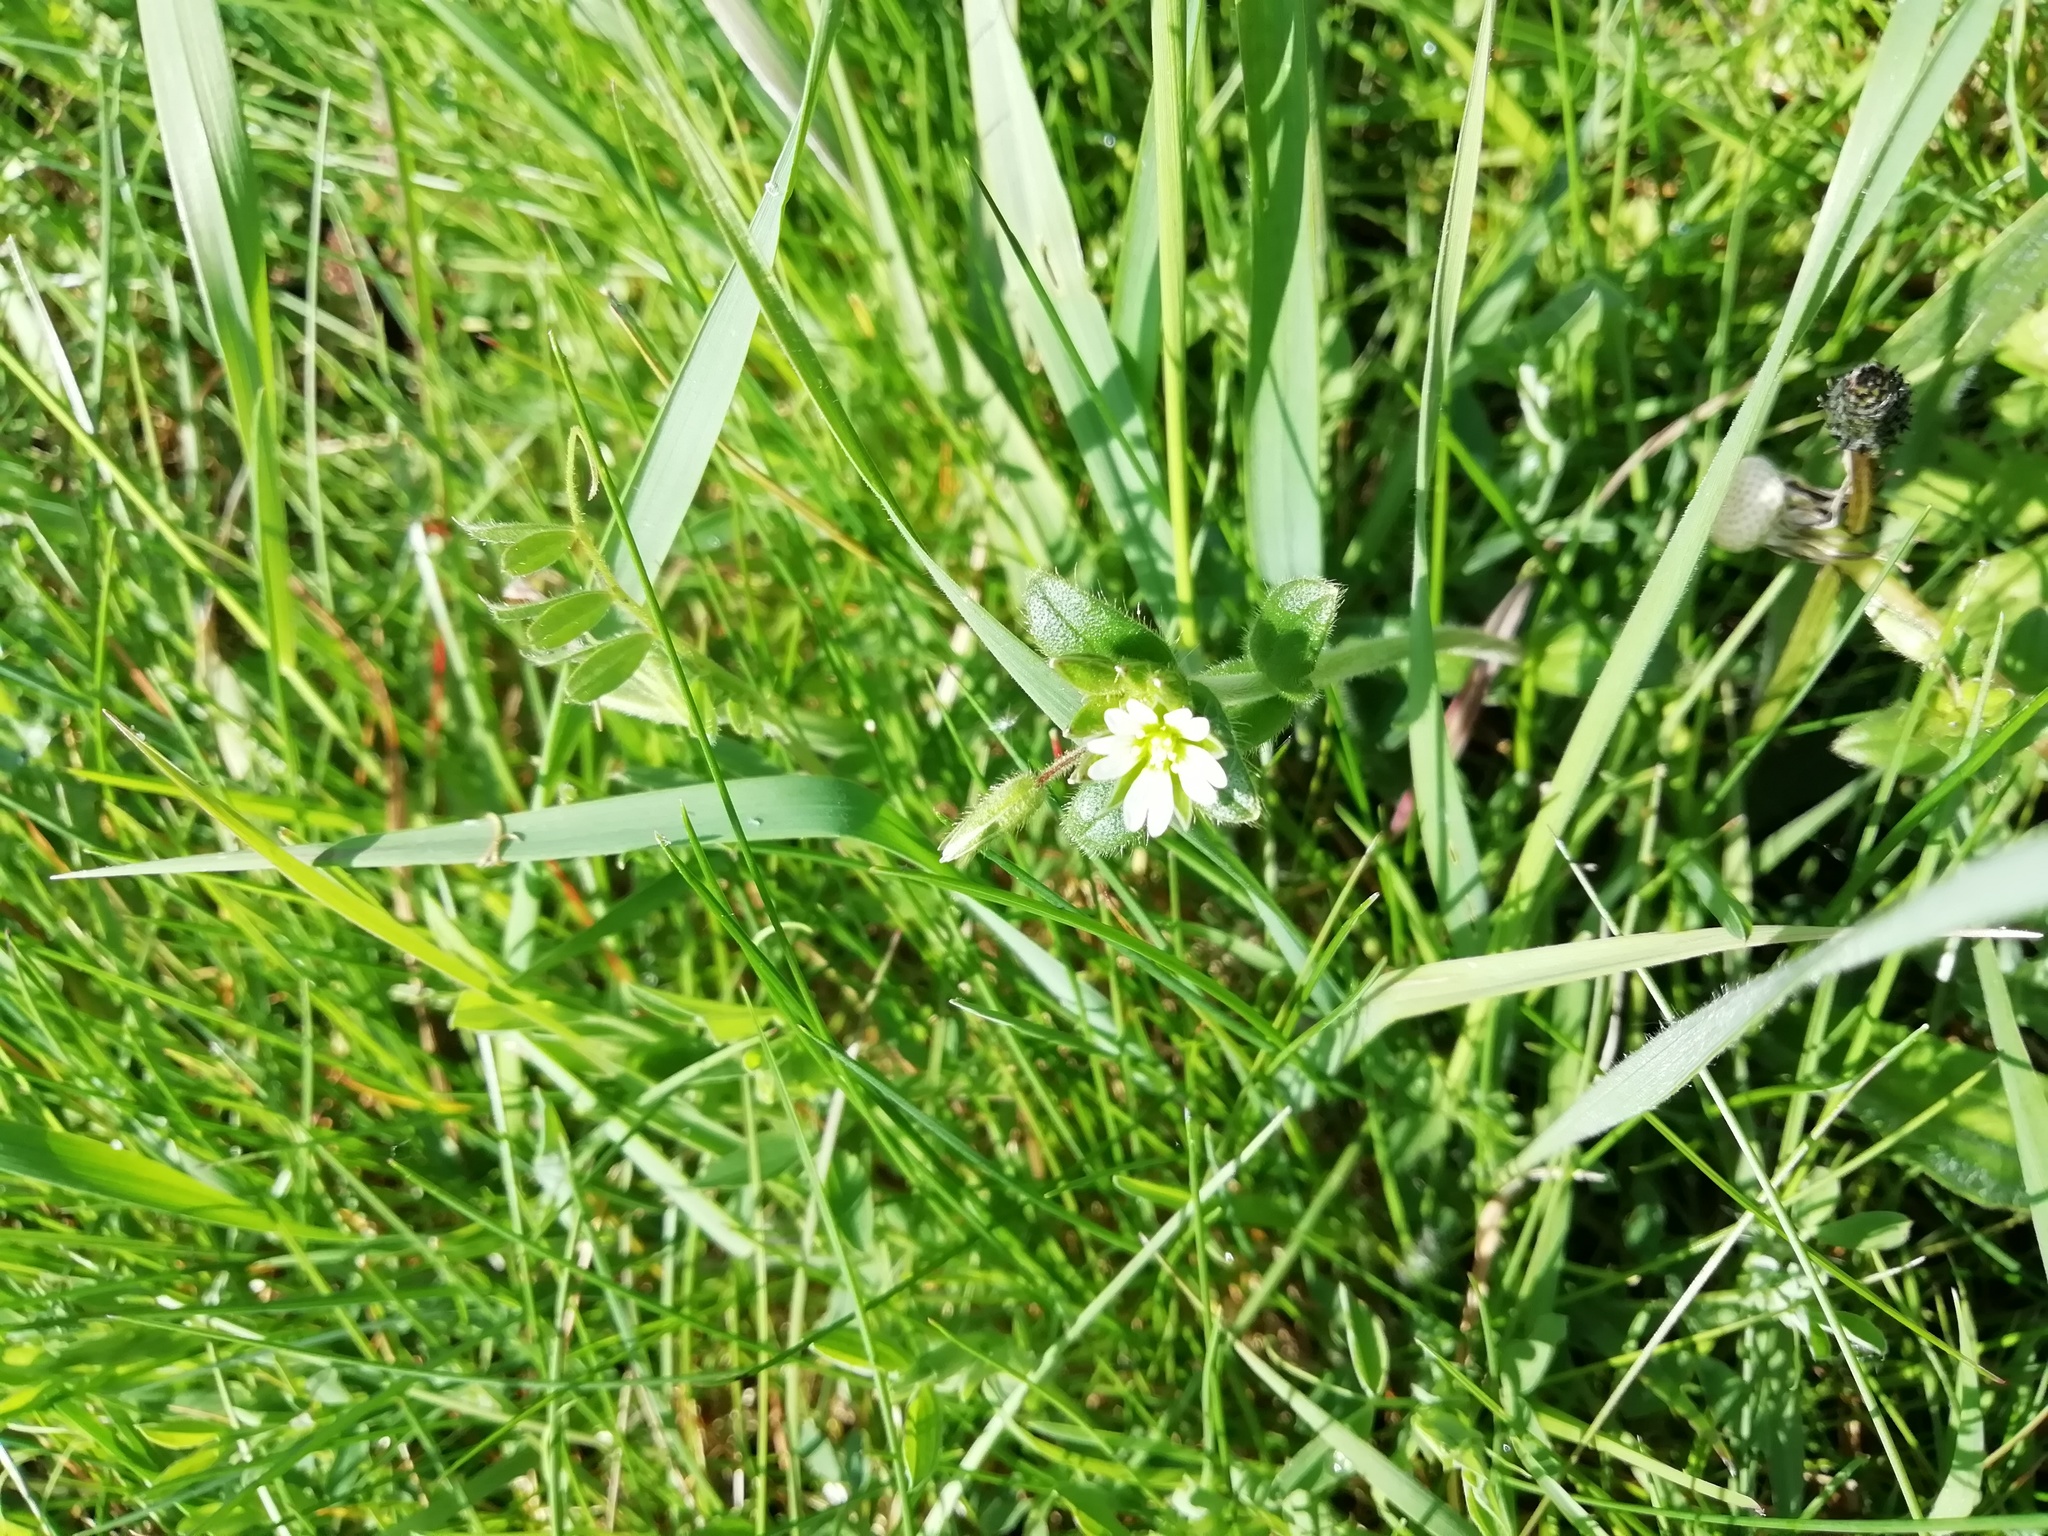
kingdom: Plantae
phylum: Tracheophyta
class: Magnoliopsida
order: Caryophyllales
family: Caryophyllaceae
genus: Cerastium
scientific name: Cerastium fontanum
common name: Common mouse-ear
